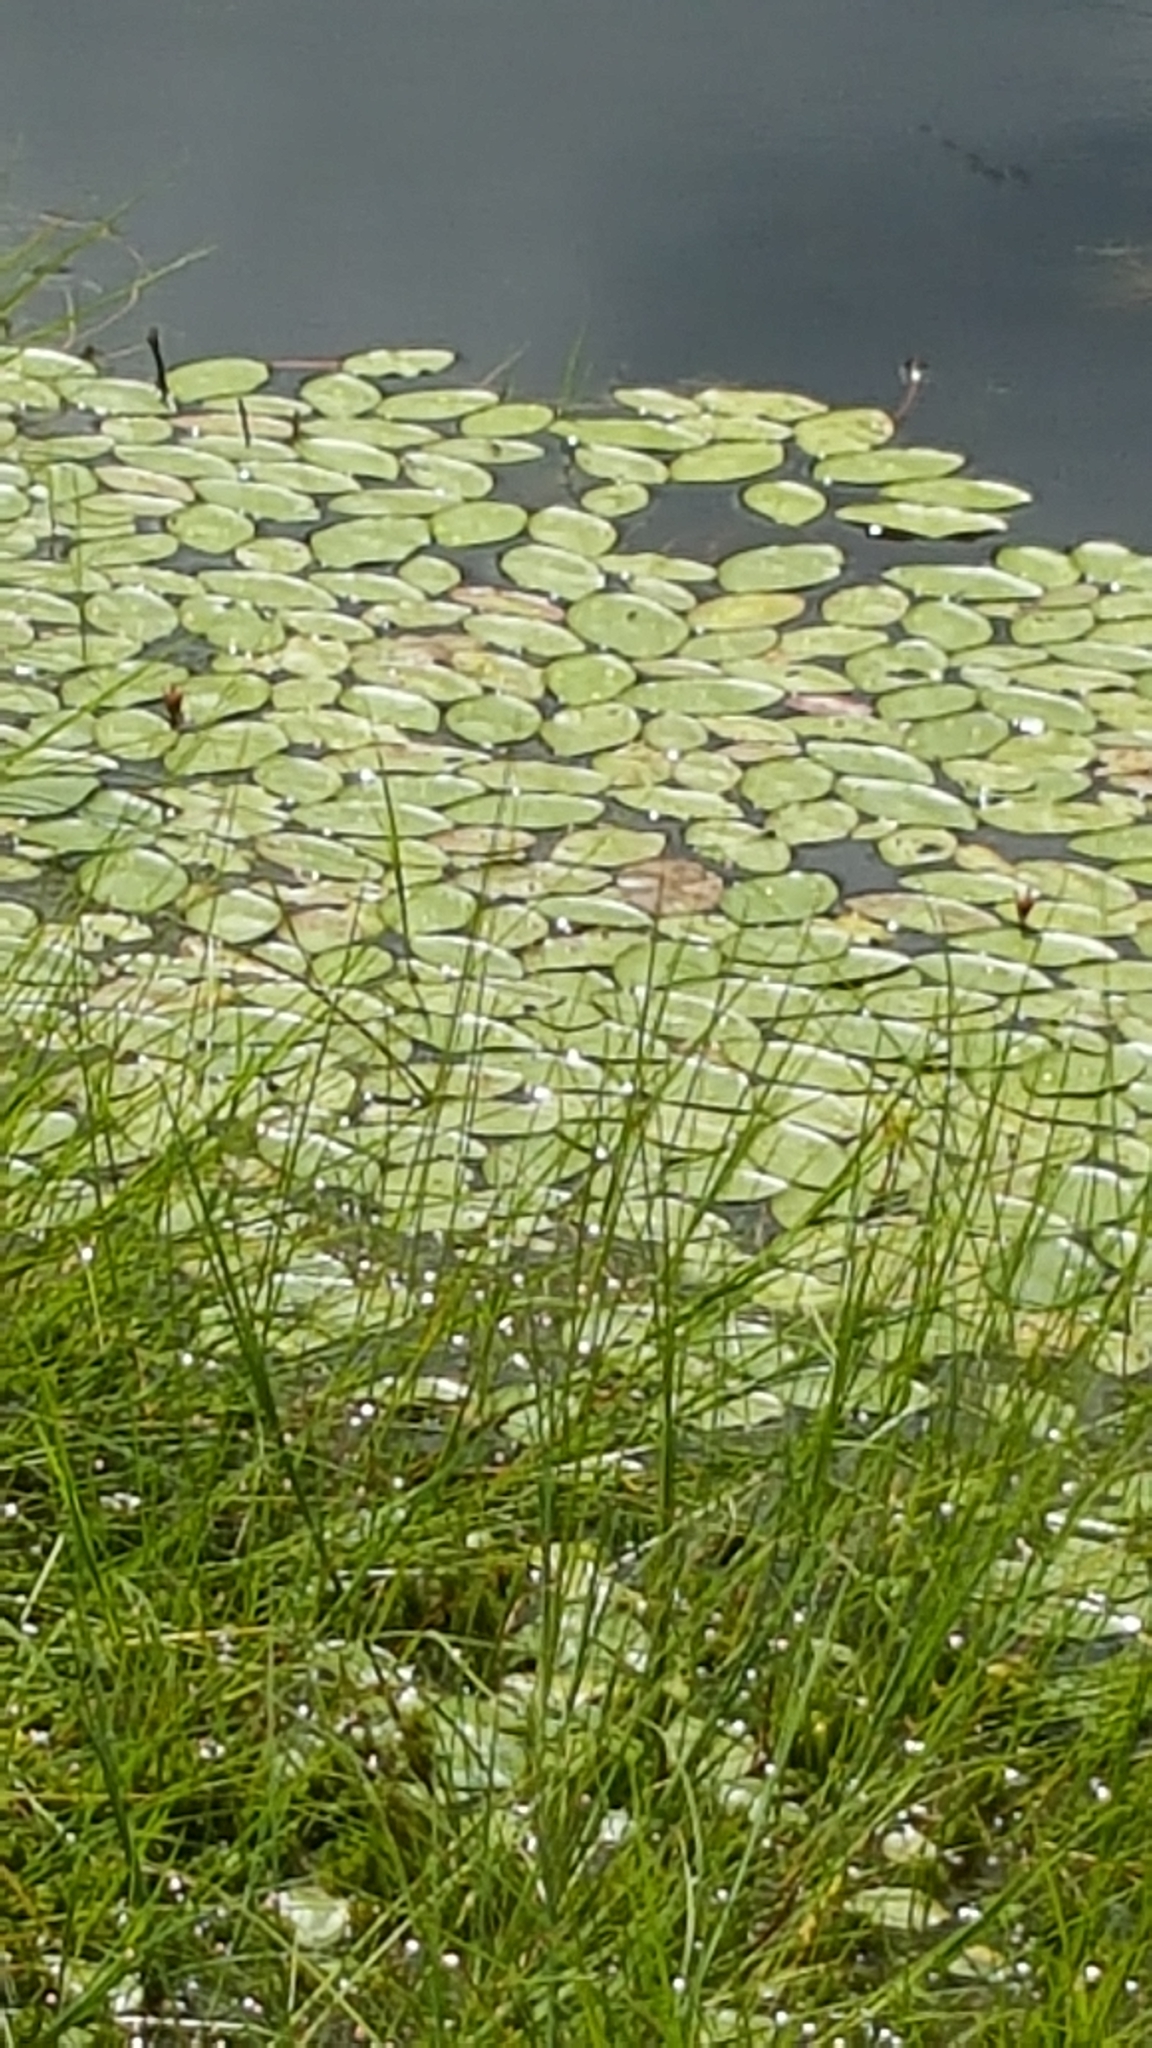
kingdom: Plantae
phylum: Tracheophyta
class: Magnoliopsida
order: Nymphaeales
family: Cabombaceae
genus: Brasenia
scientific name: Brasenia schreberi
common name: Water-shield
